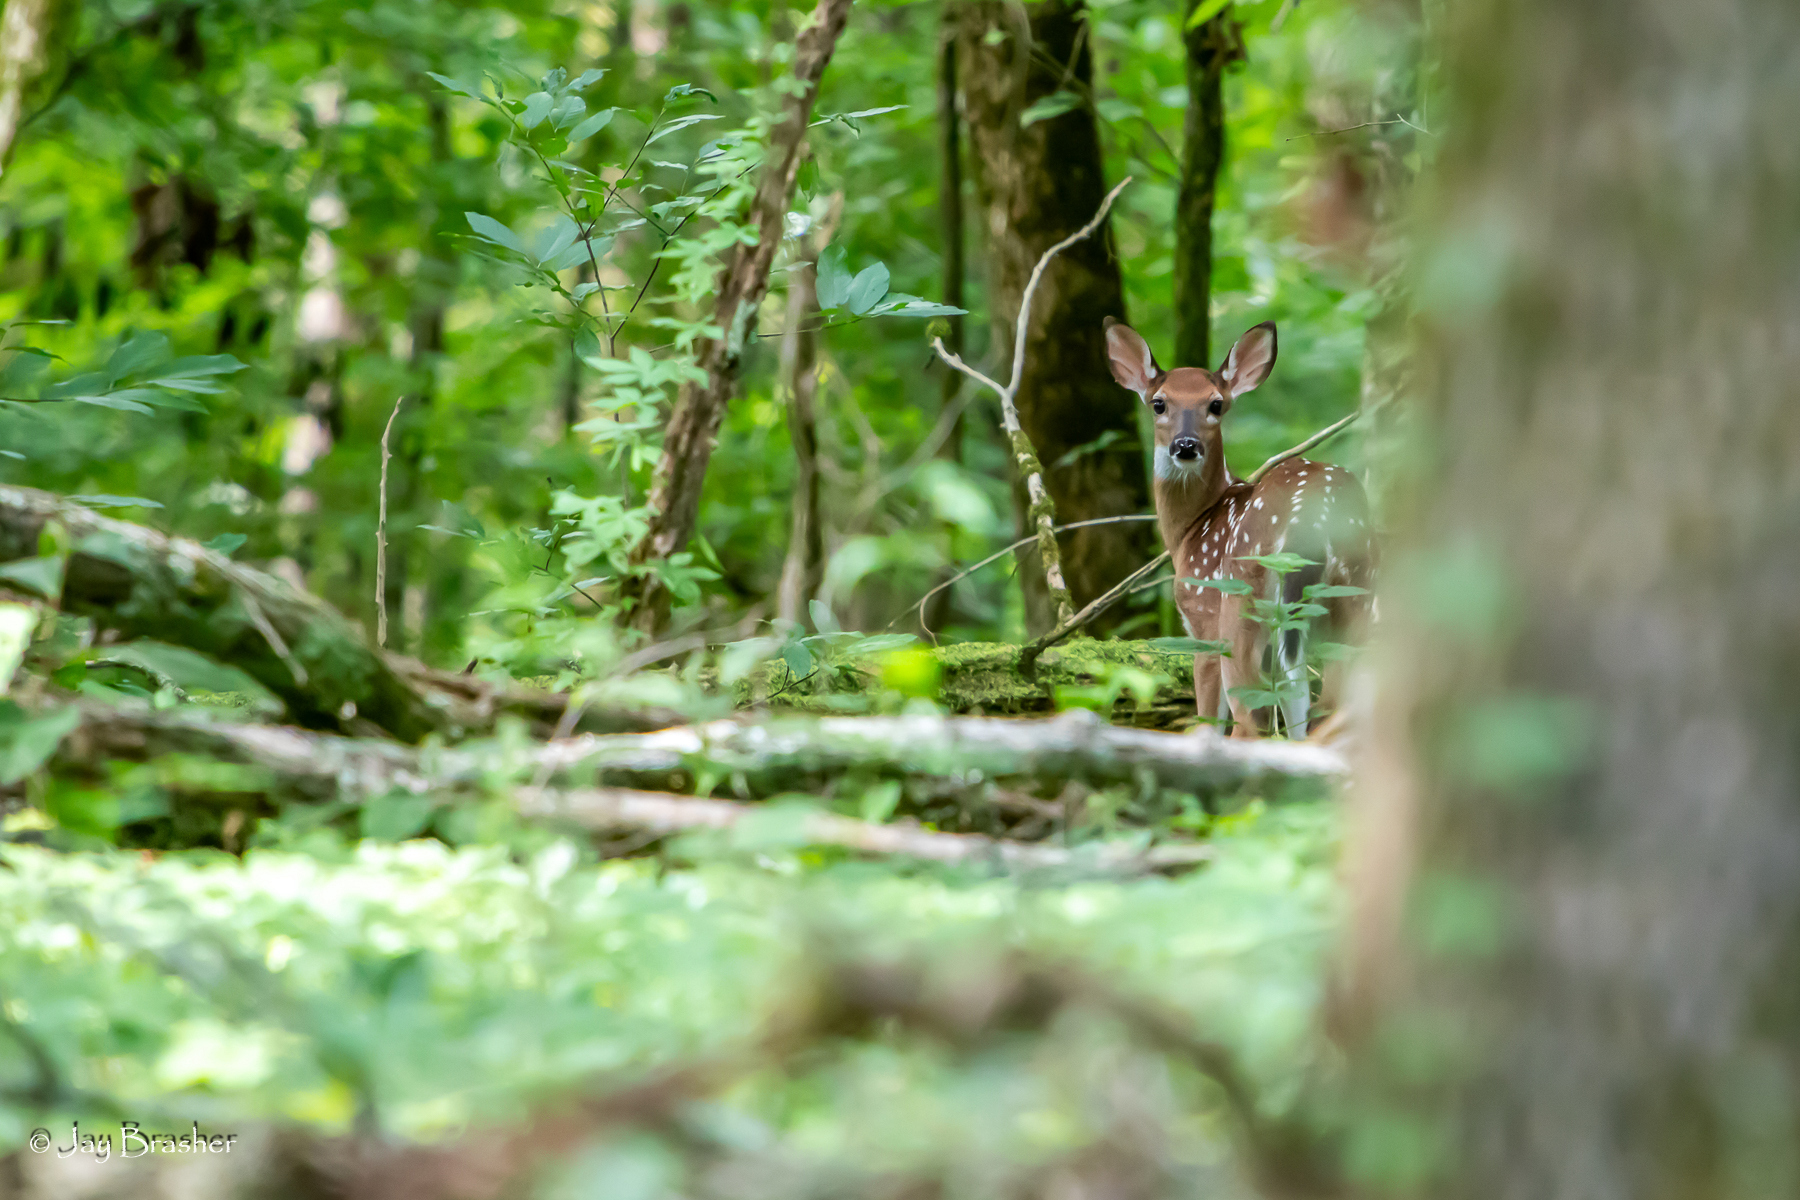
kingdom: Animalia
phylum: Chordata
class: Mammalia
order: Artiodactyla
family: Cervidae
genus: Odocoileus
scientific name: Odocoileus virginianus
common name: White-tailed deer
